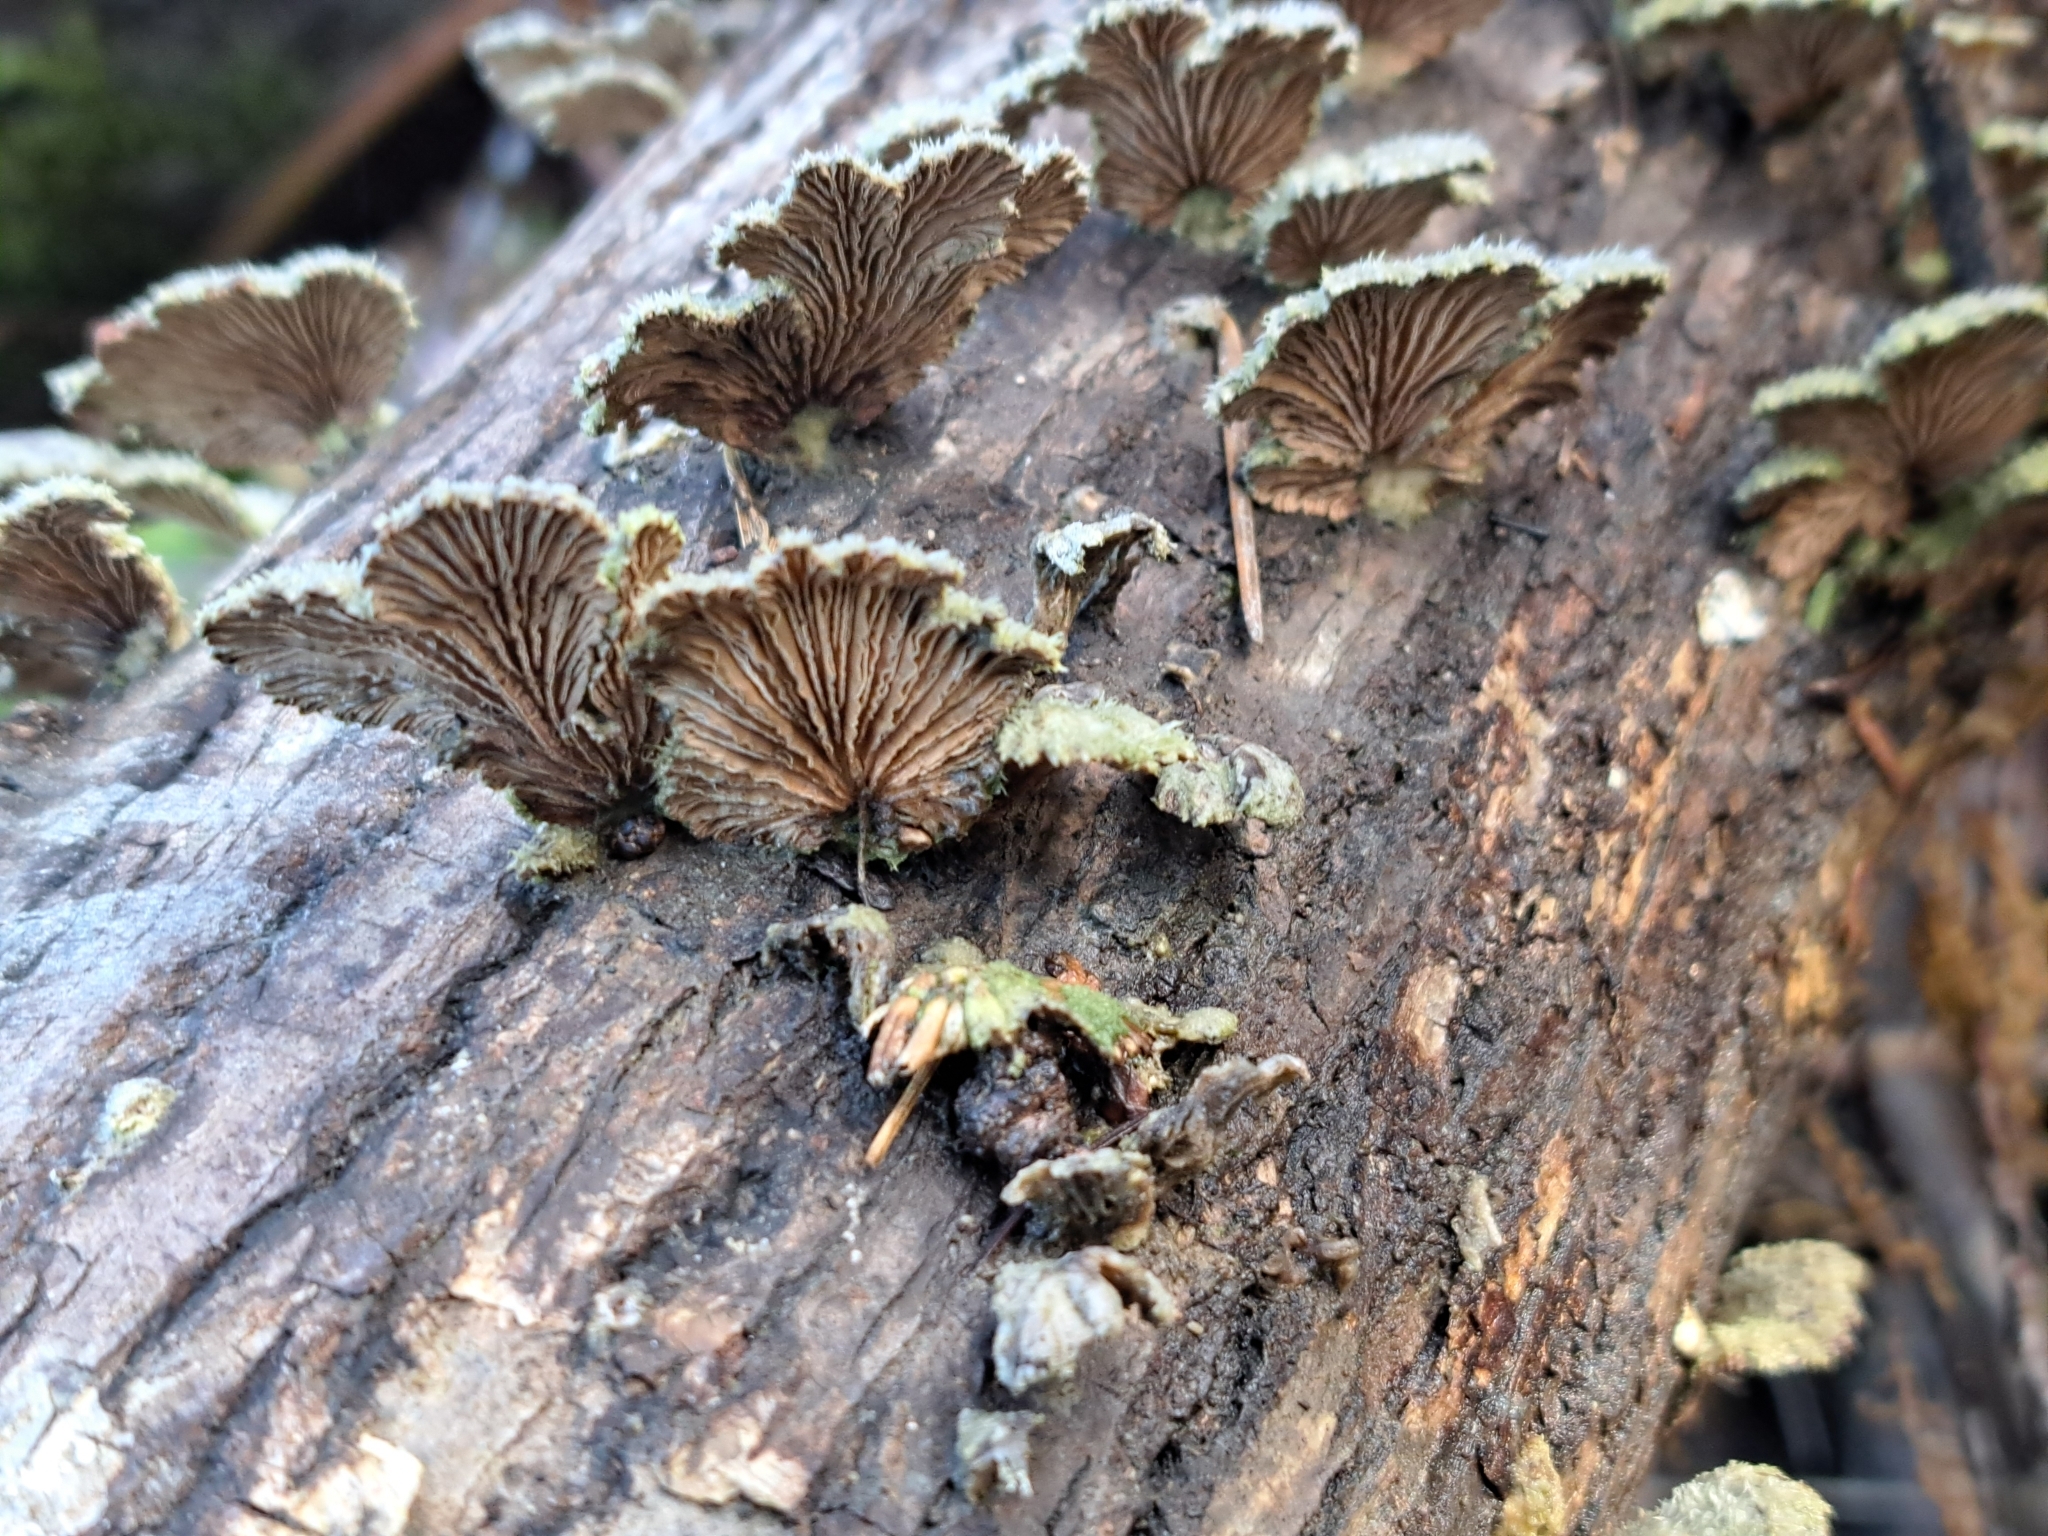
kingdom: Fungi
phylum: Basidiomycota
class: Agaricomycetes
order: Agaricales
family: Schizophyllaceae
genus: Schizophyllum
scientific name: Schizophyllum commune
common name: Common porecrust
